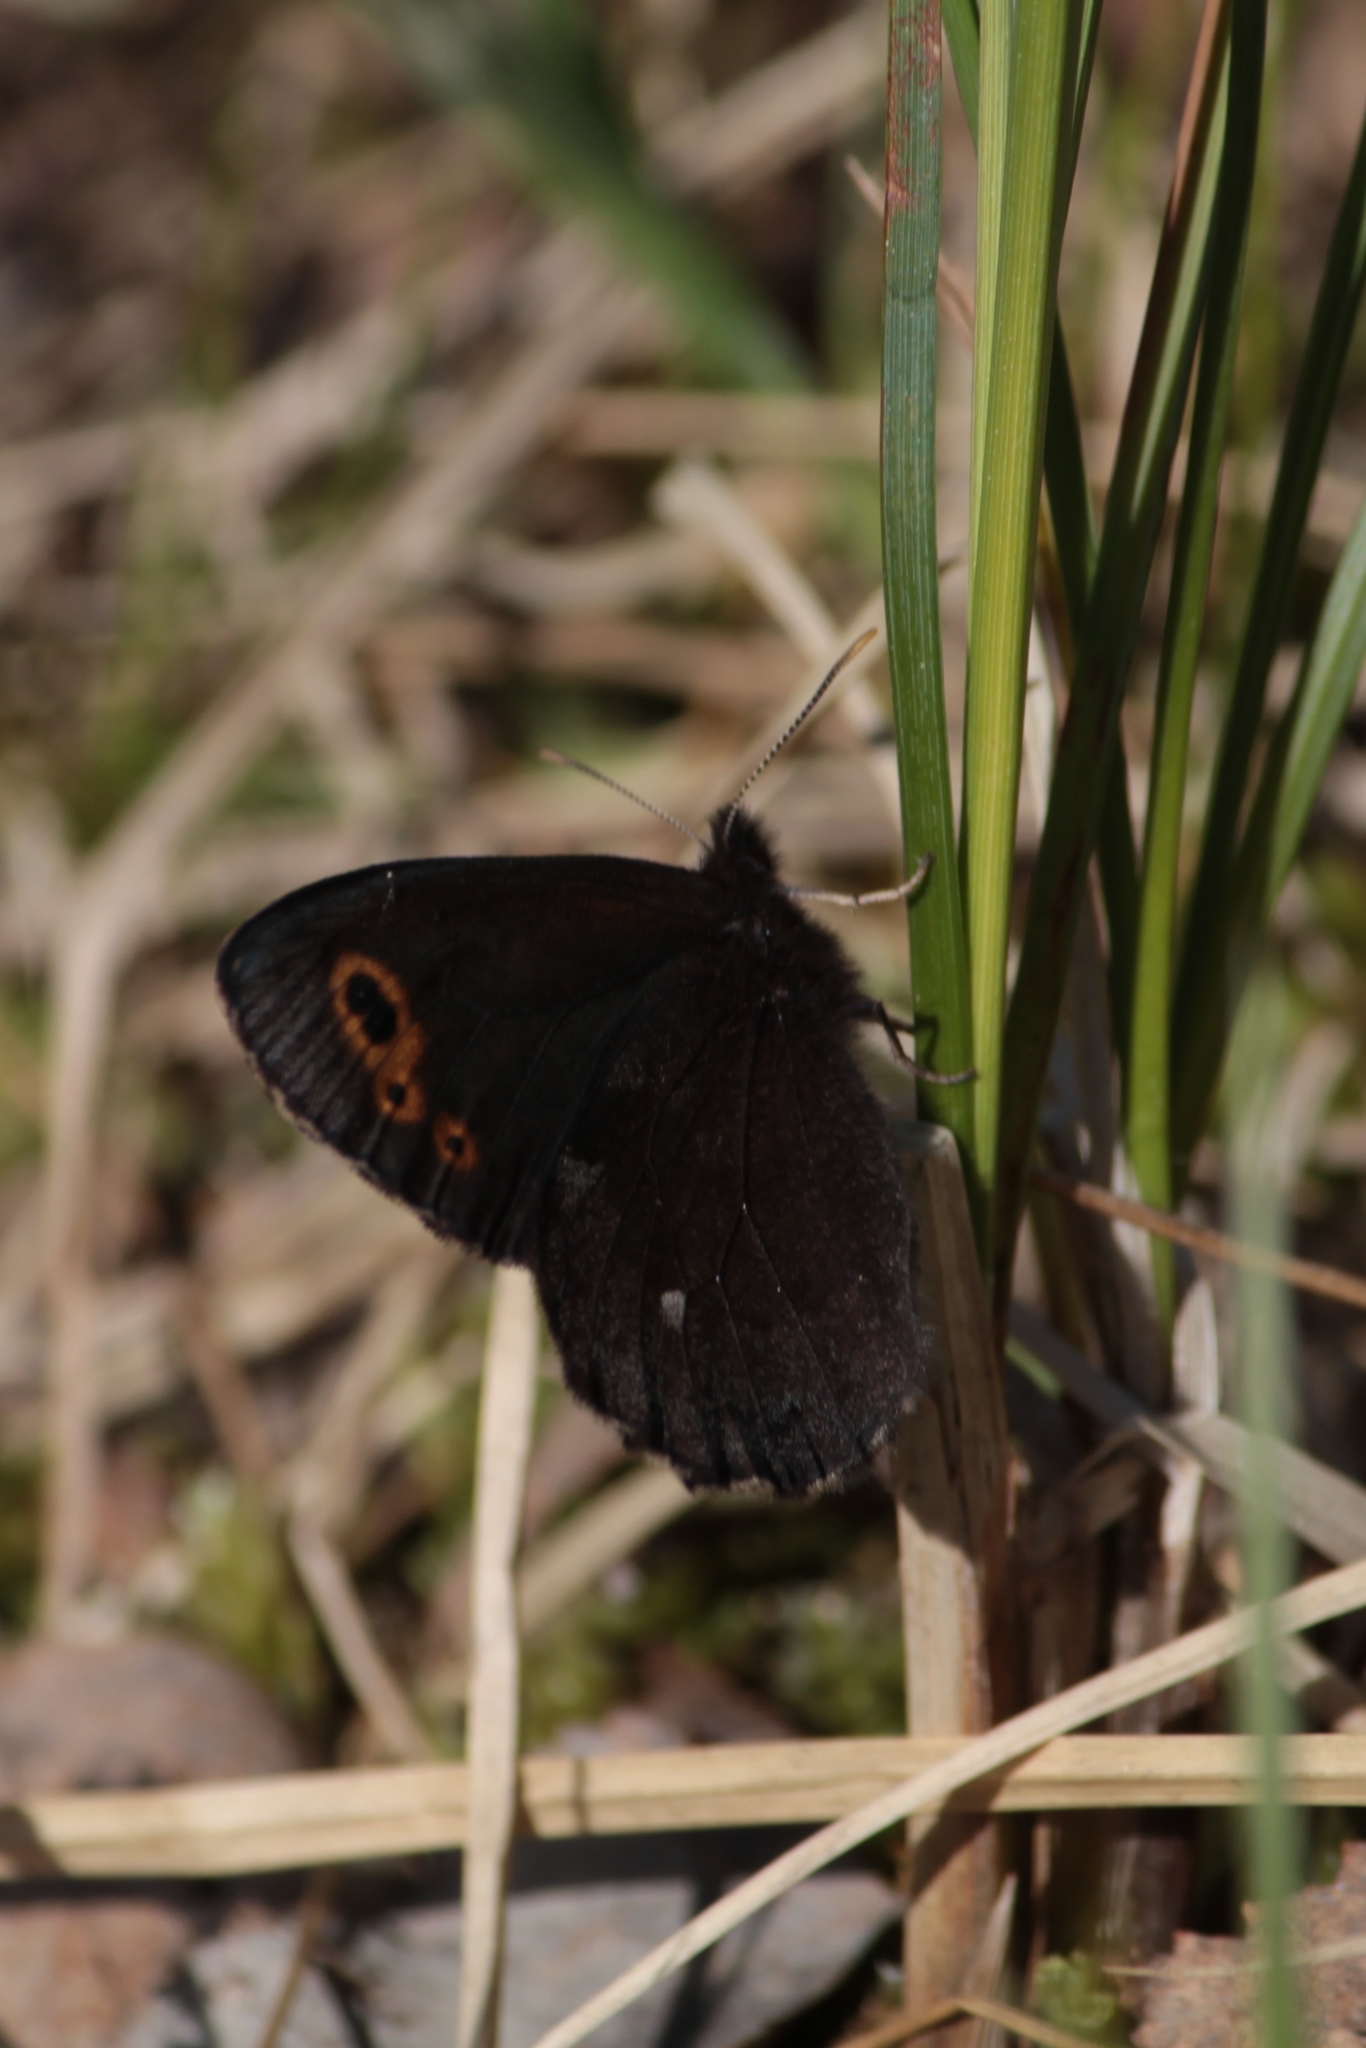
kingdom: Animalia
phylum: Arthropoda
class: Insecta
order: Lepidoptera
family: Nymphalidae
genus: Erebia
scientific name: Erebia embla
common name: Lapland ringlet
